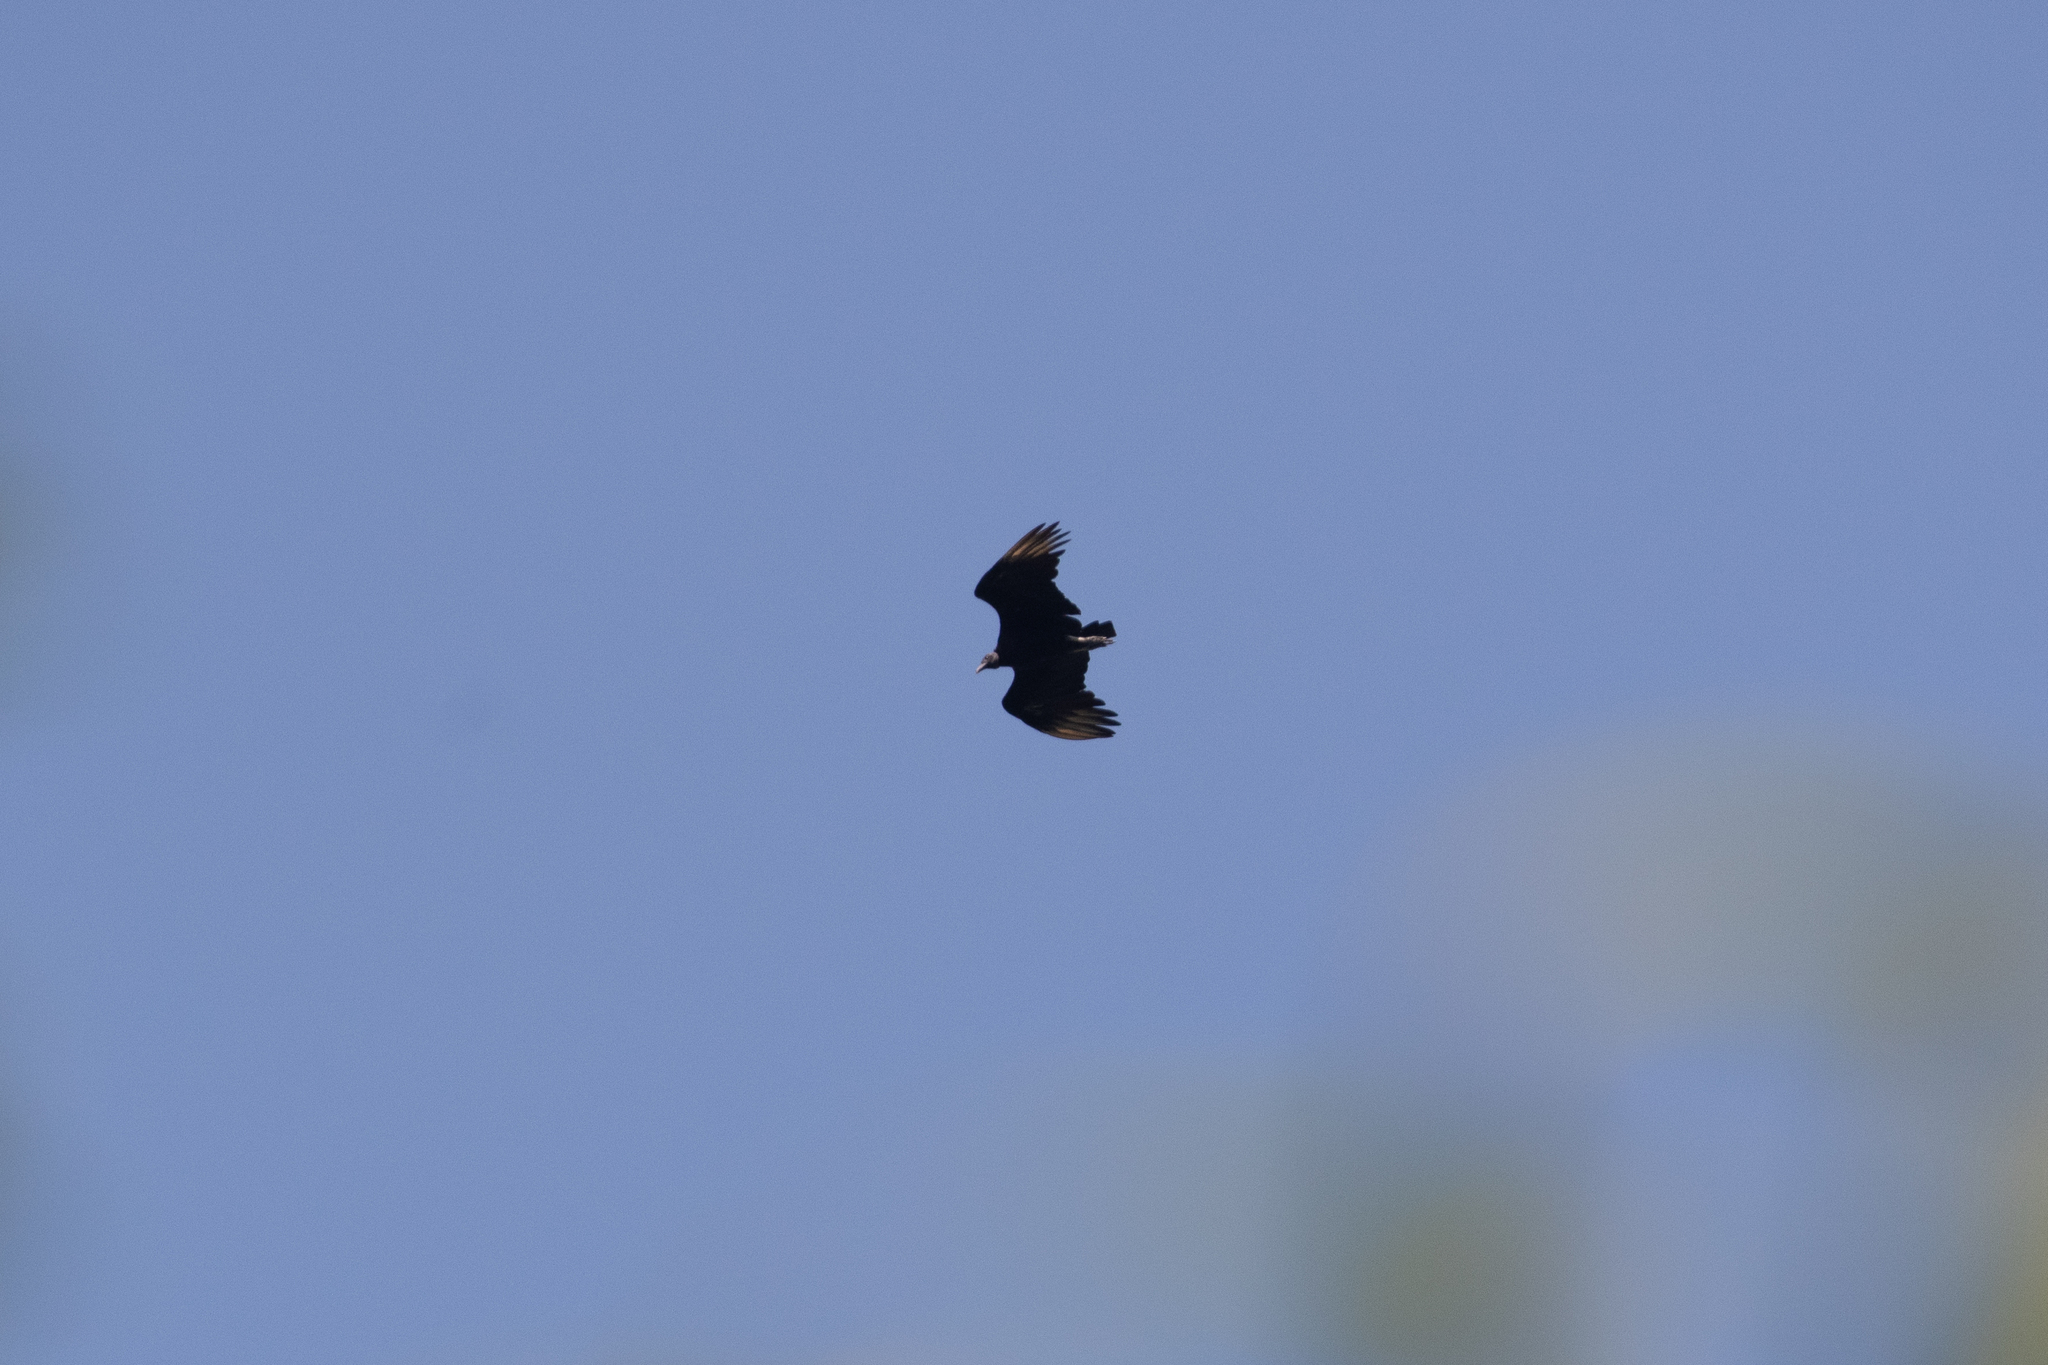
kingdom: Animalia
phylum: Chordata
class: Aves
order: Accipitriformes
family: Cathartidae
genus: Coragyps
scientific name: Coragyps atratus
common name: Black vulture
